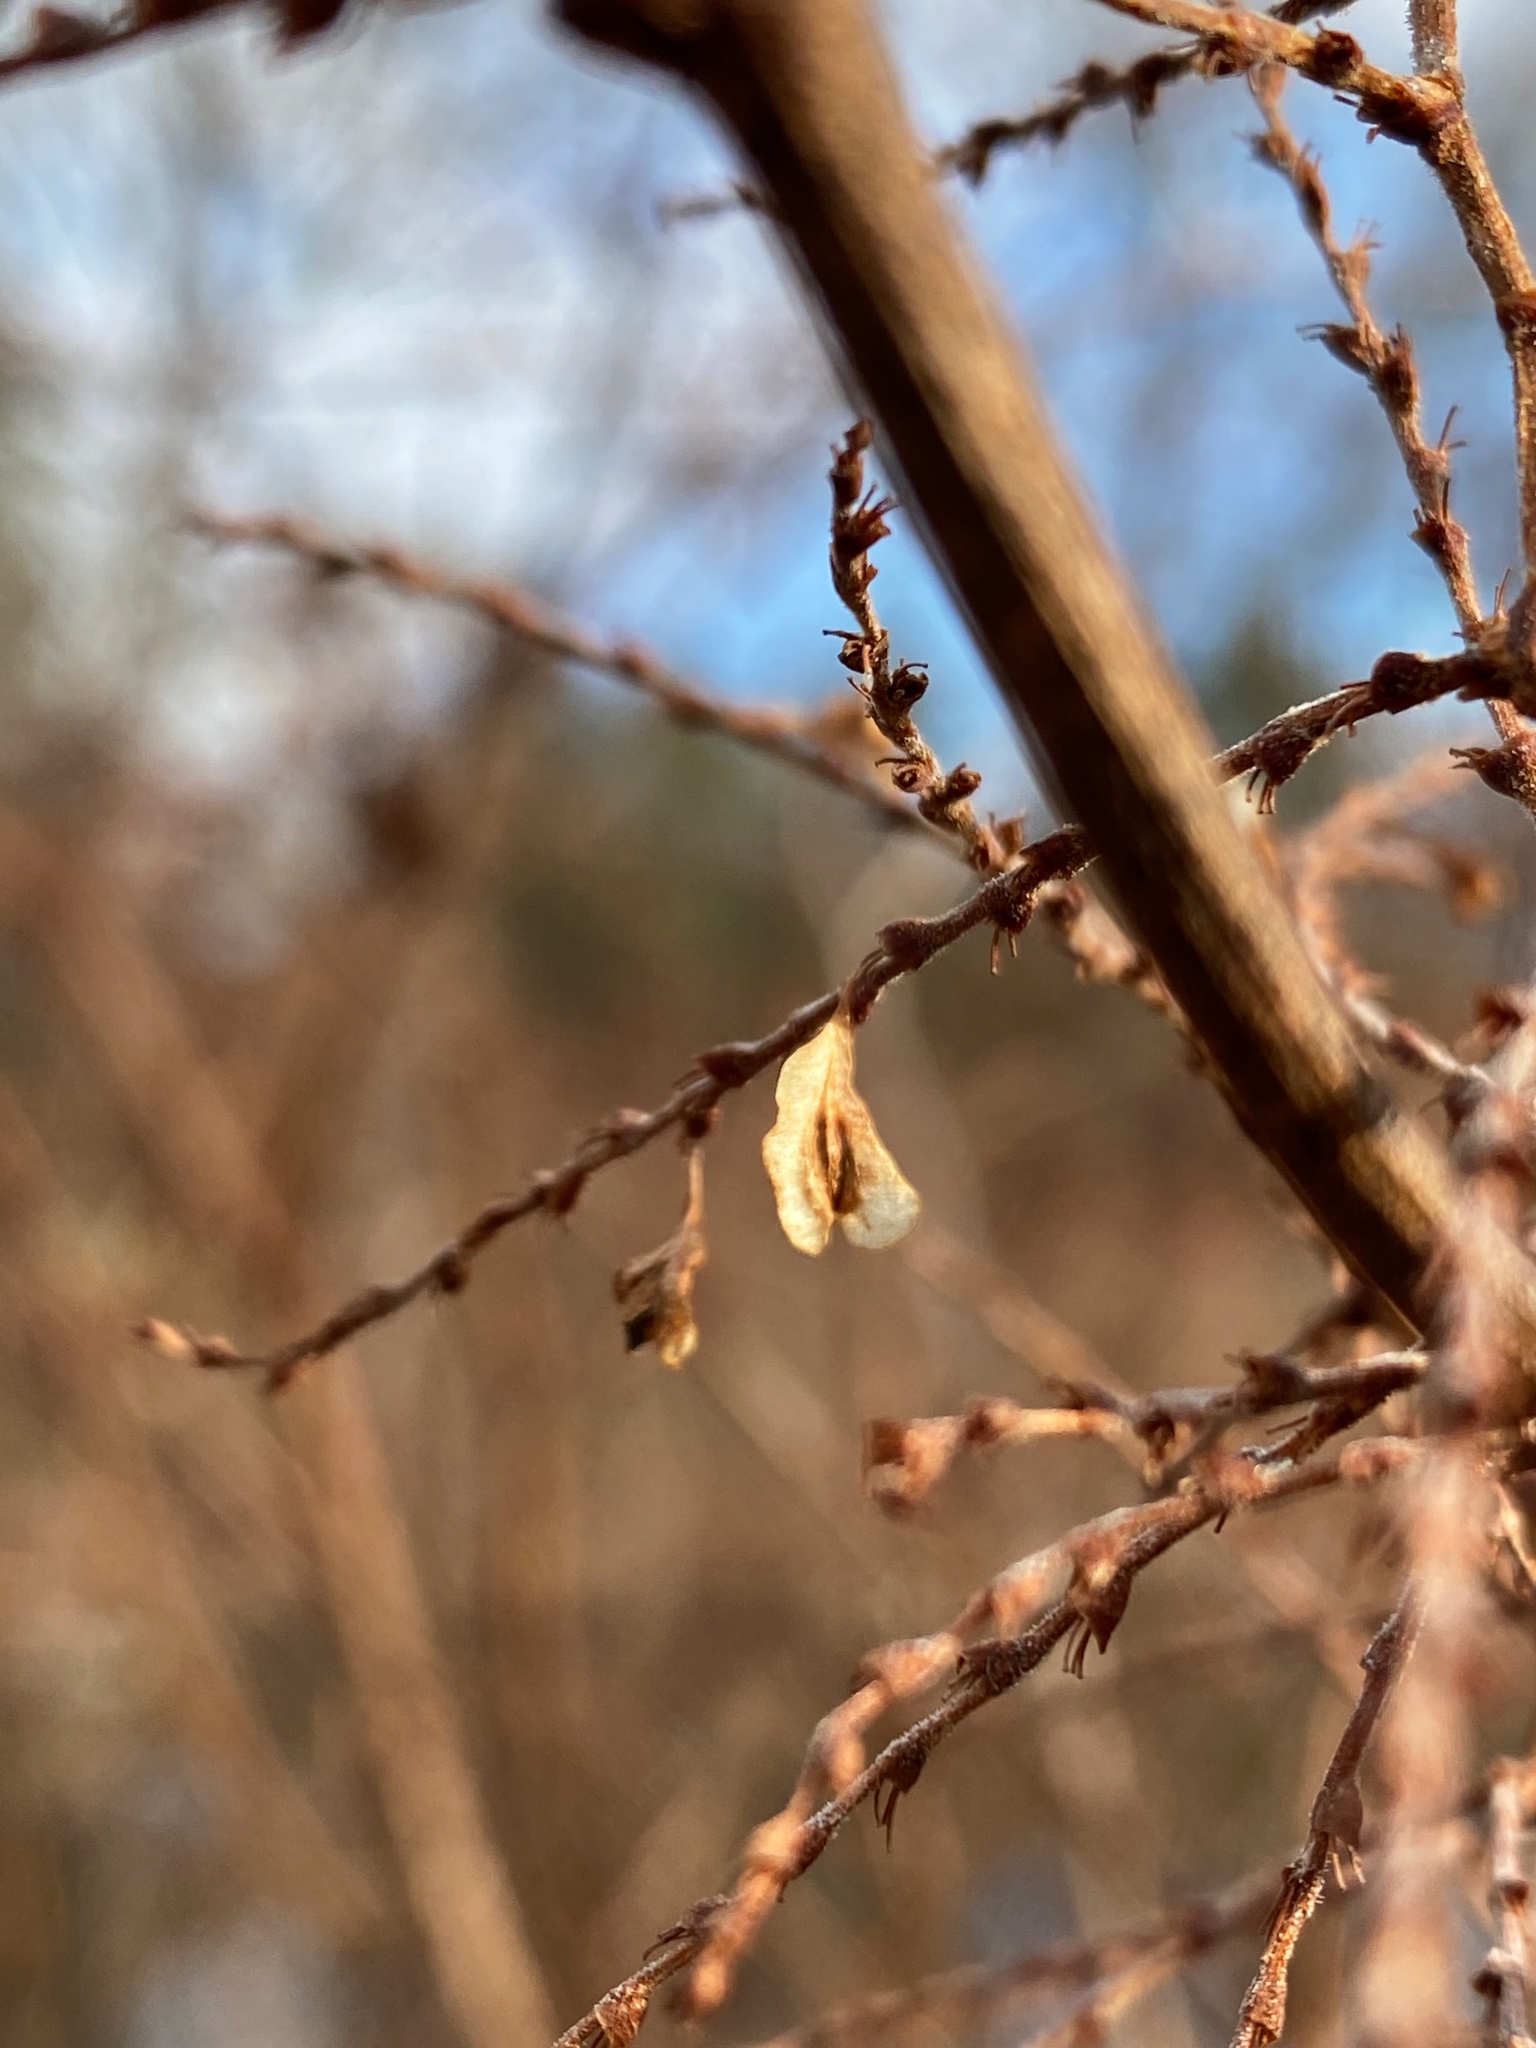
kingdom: Plantae
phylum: Tracheophyta
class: Magnoliopsida
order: Caryophyllales
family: Polygonaceae
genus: Reynoutria
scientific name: Reynoutria japonica
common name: Japanese knotweed
